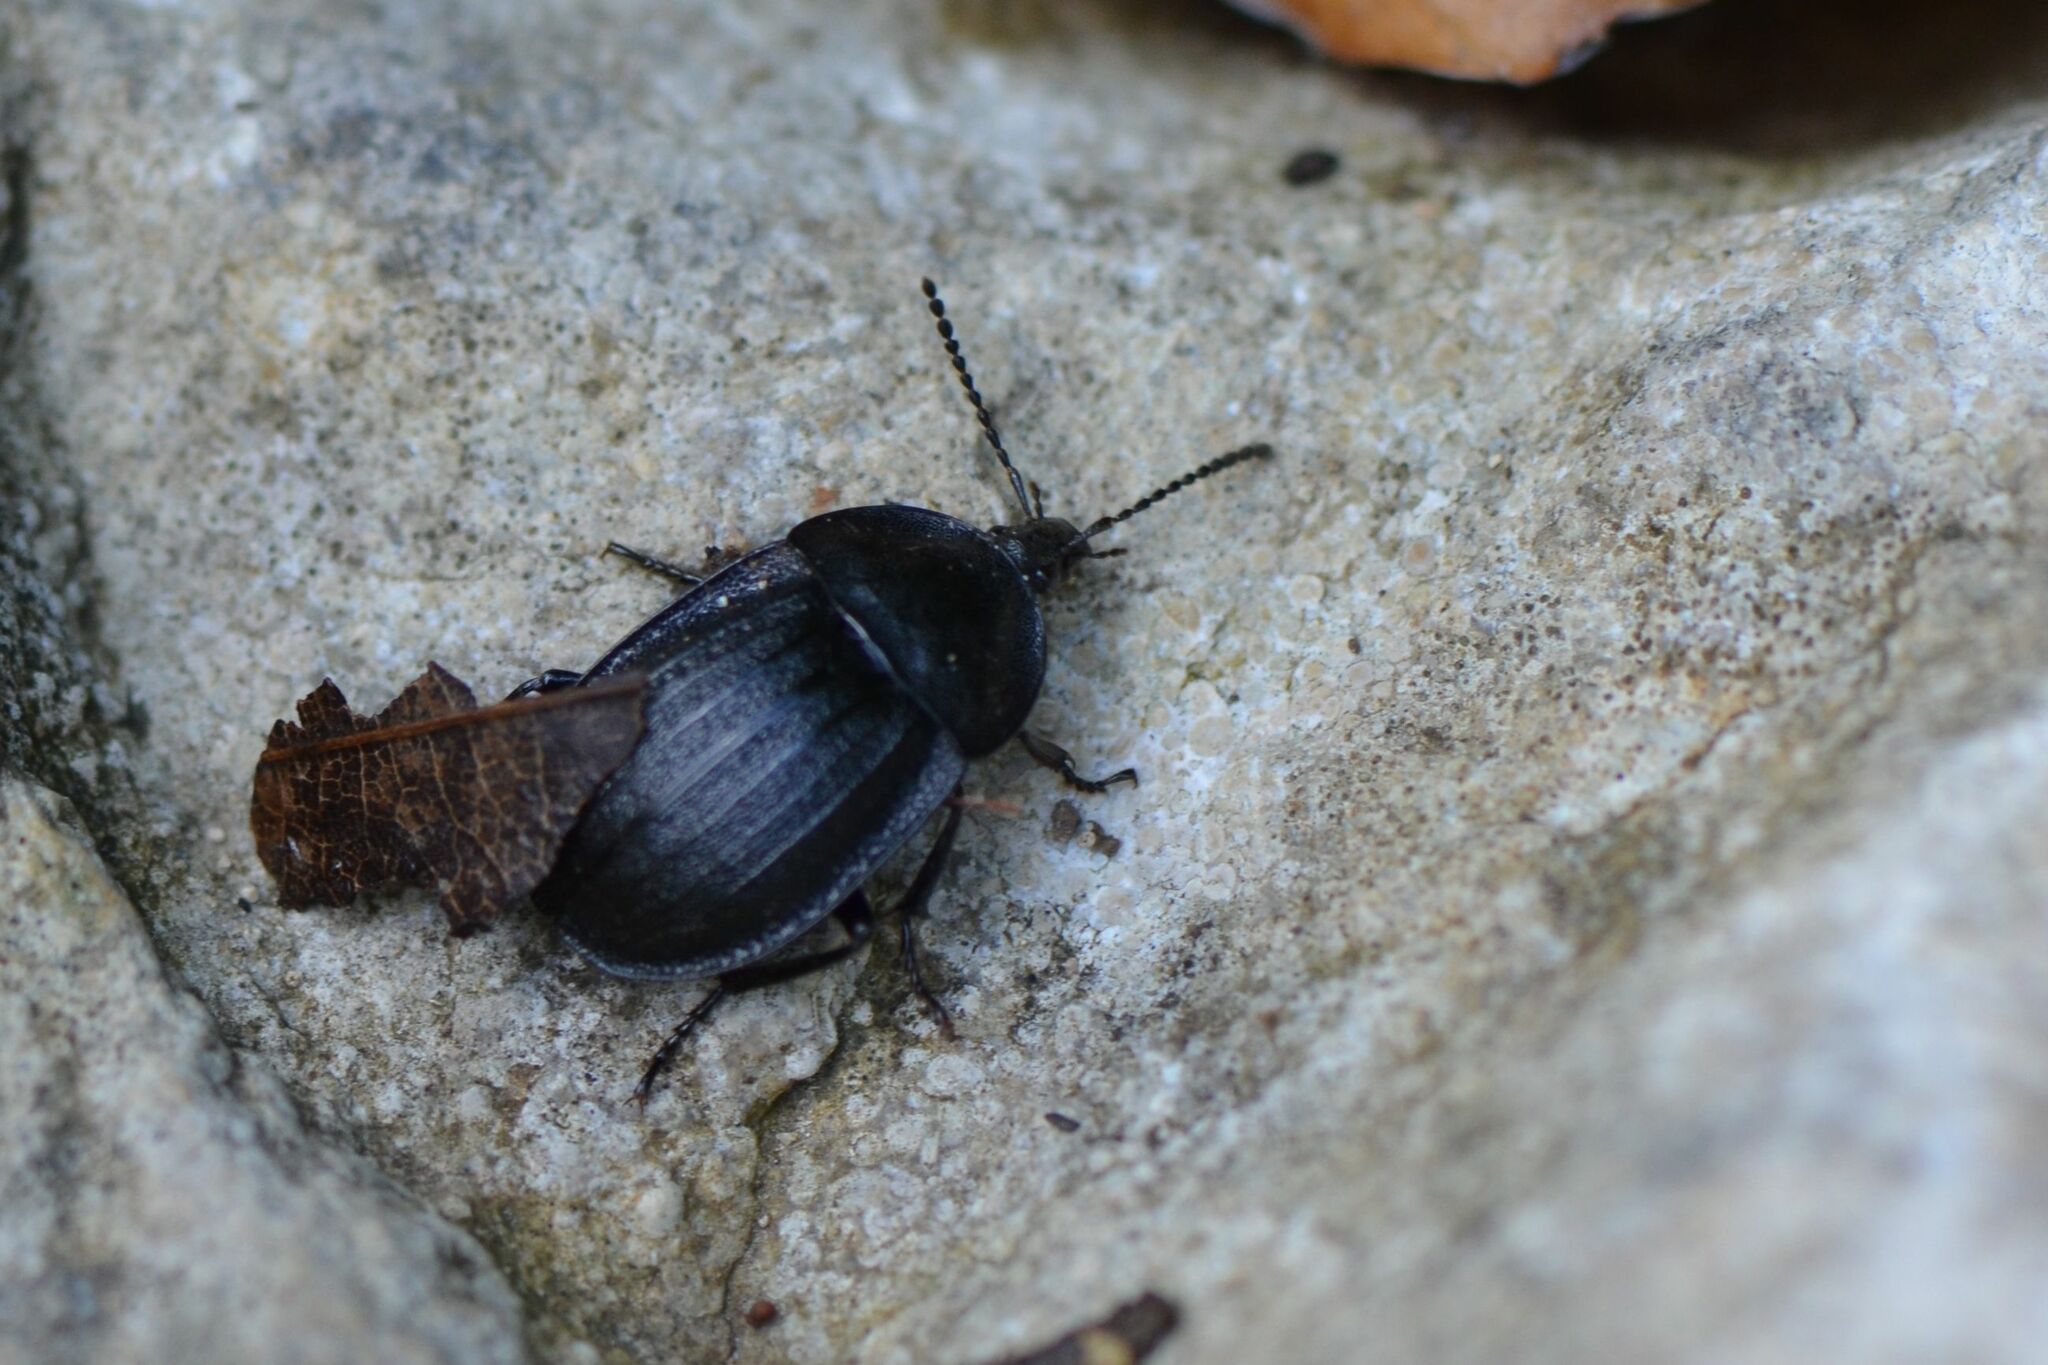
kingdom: Animalia
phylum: Arthropoda
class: Insecta
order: Coleoptera
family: Staphylinidae
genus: Silpha
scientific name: Silpha atrata
